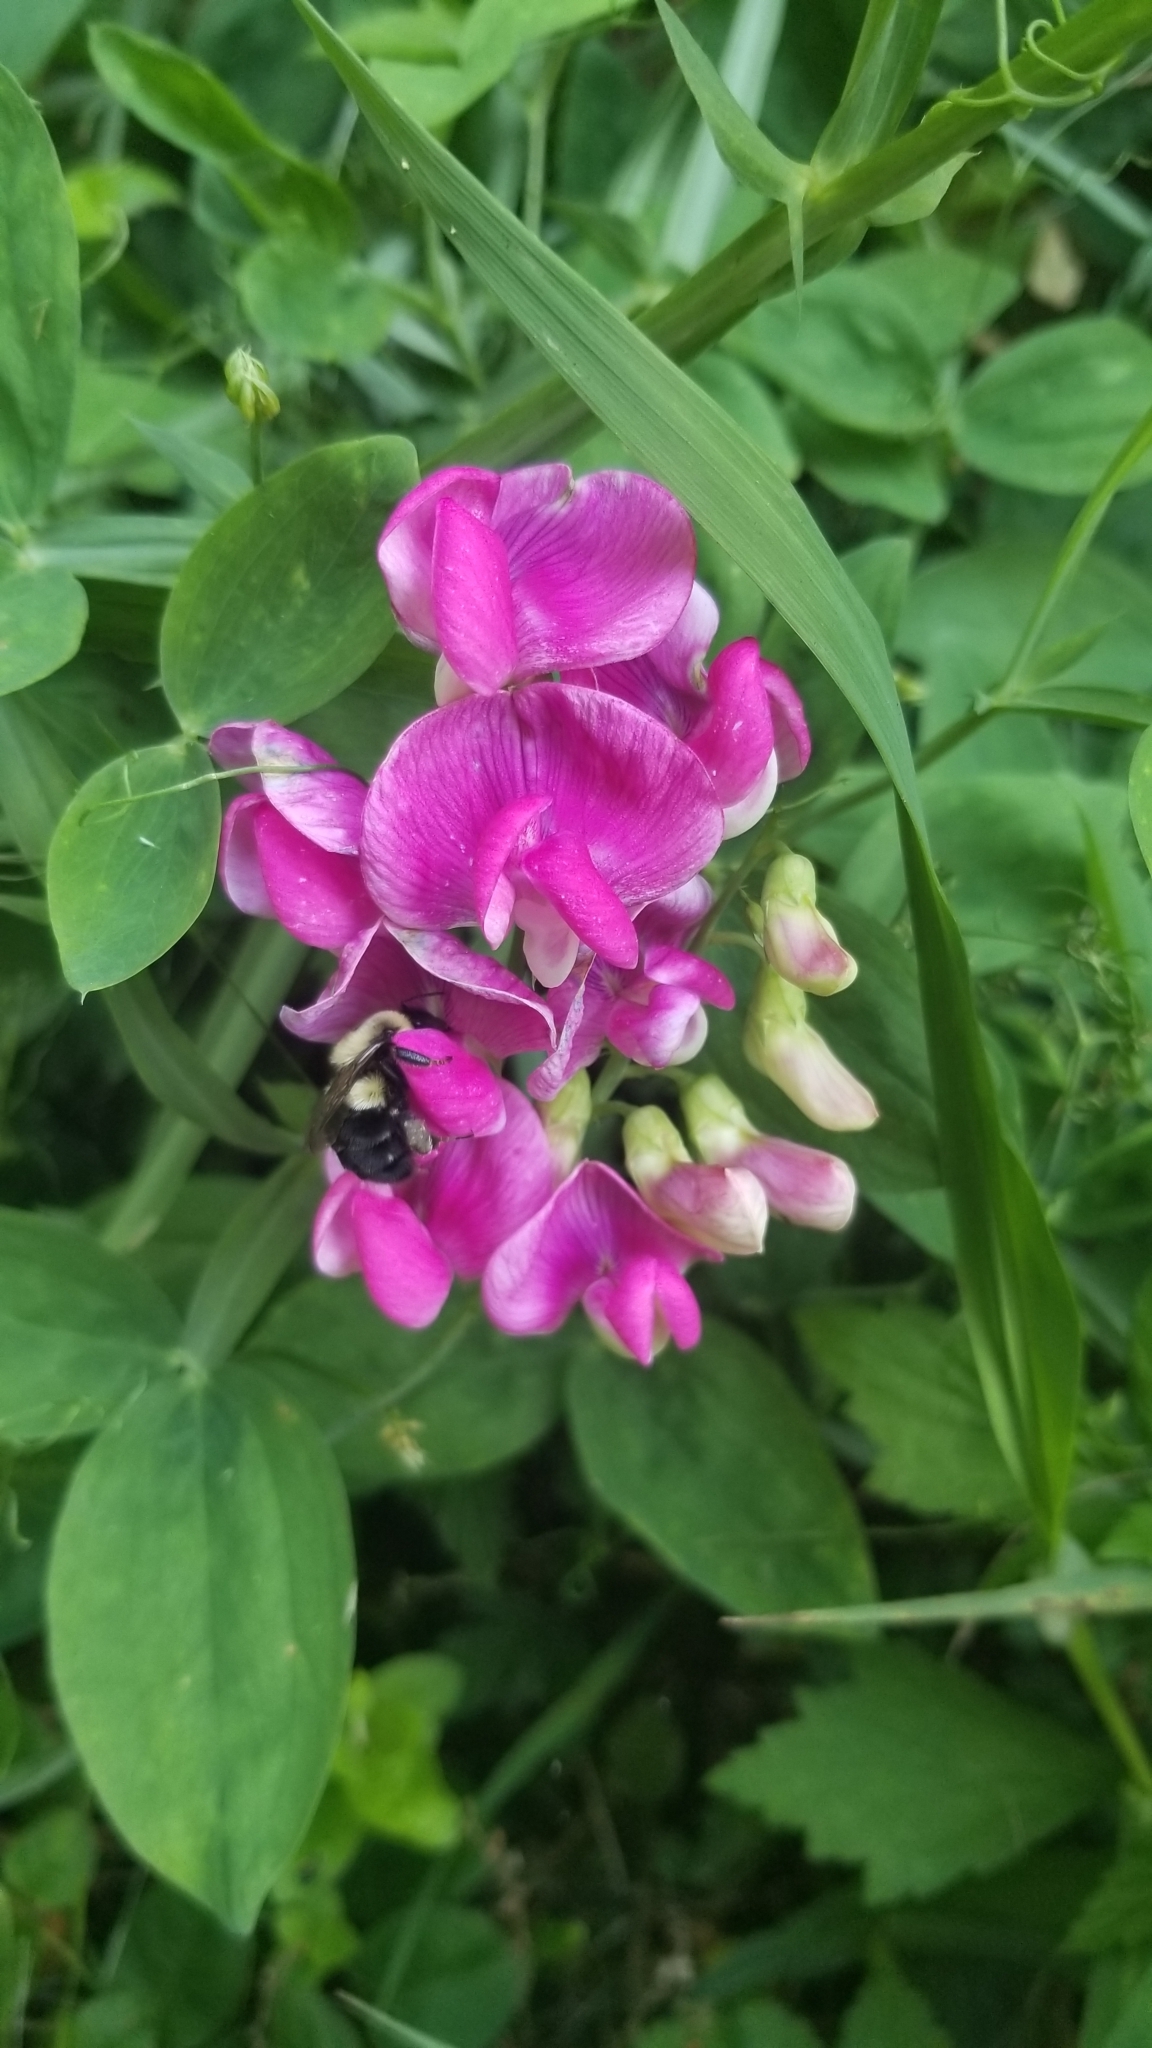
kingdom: Plantae
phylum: Tracheophyta
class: Magnoliopsida
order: Fabales
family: Fabaceae
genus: Lathyrus
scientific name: Lathyrus latifolius
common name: Perennial pea
